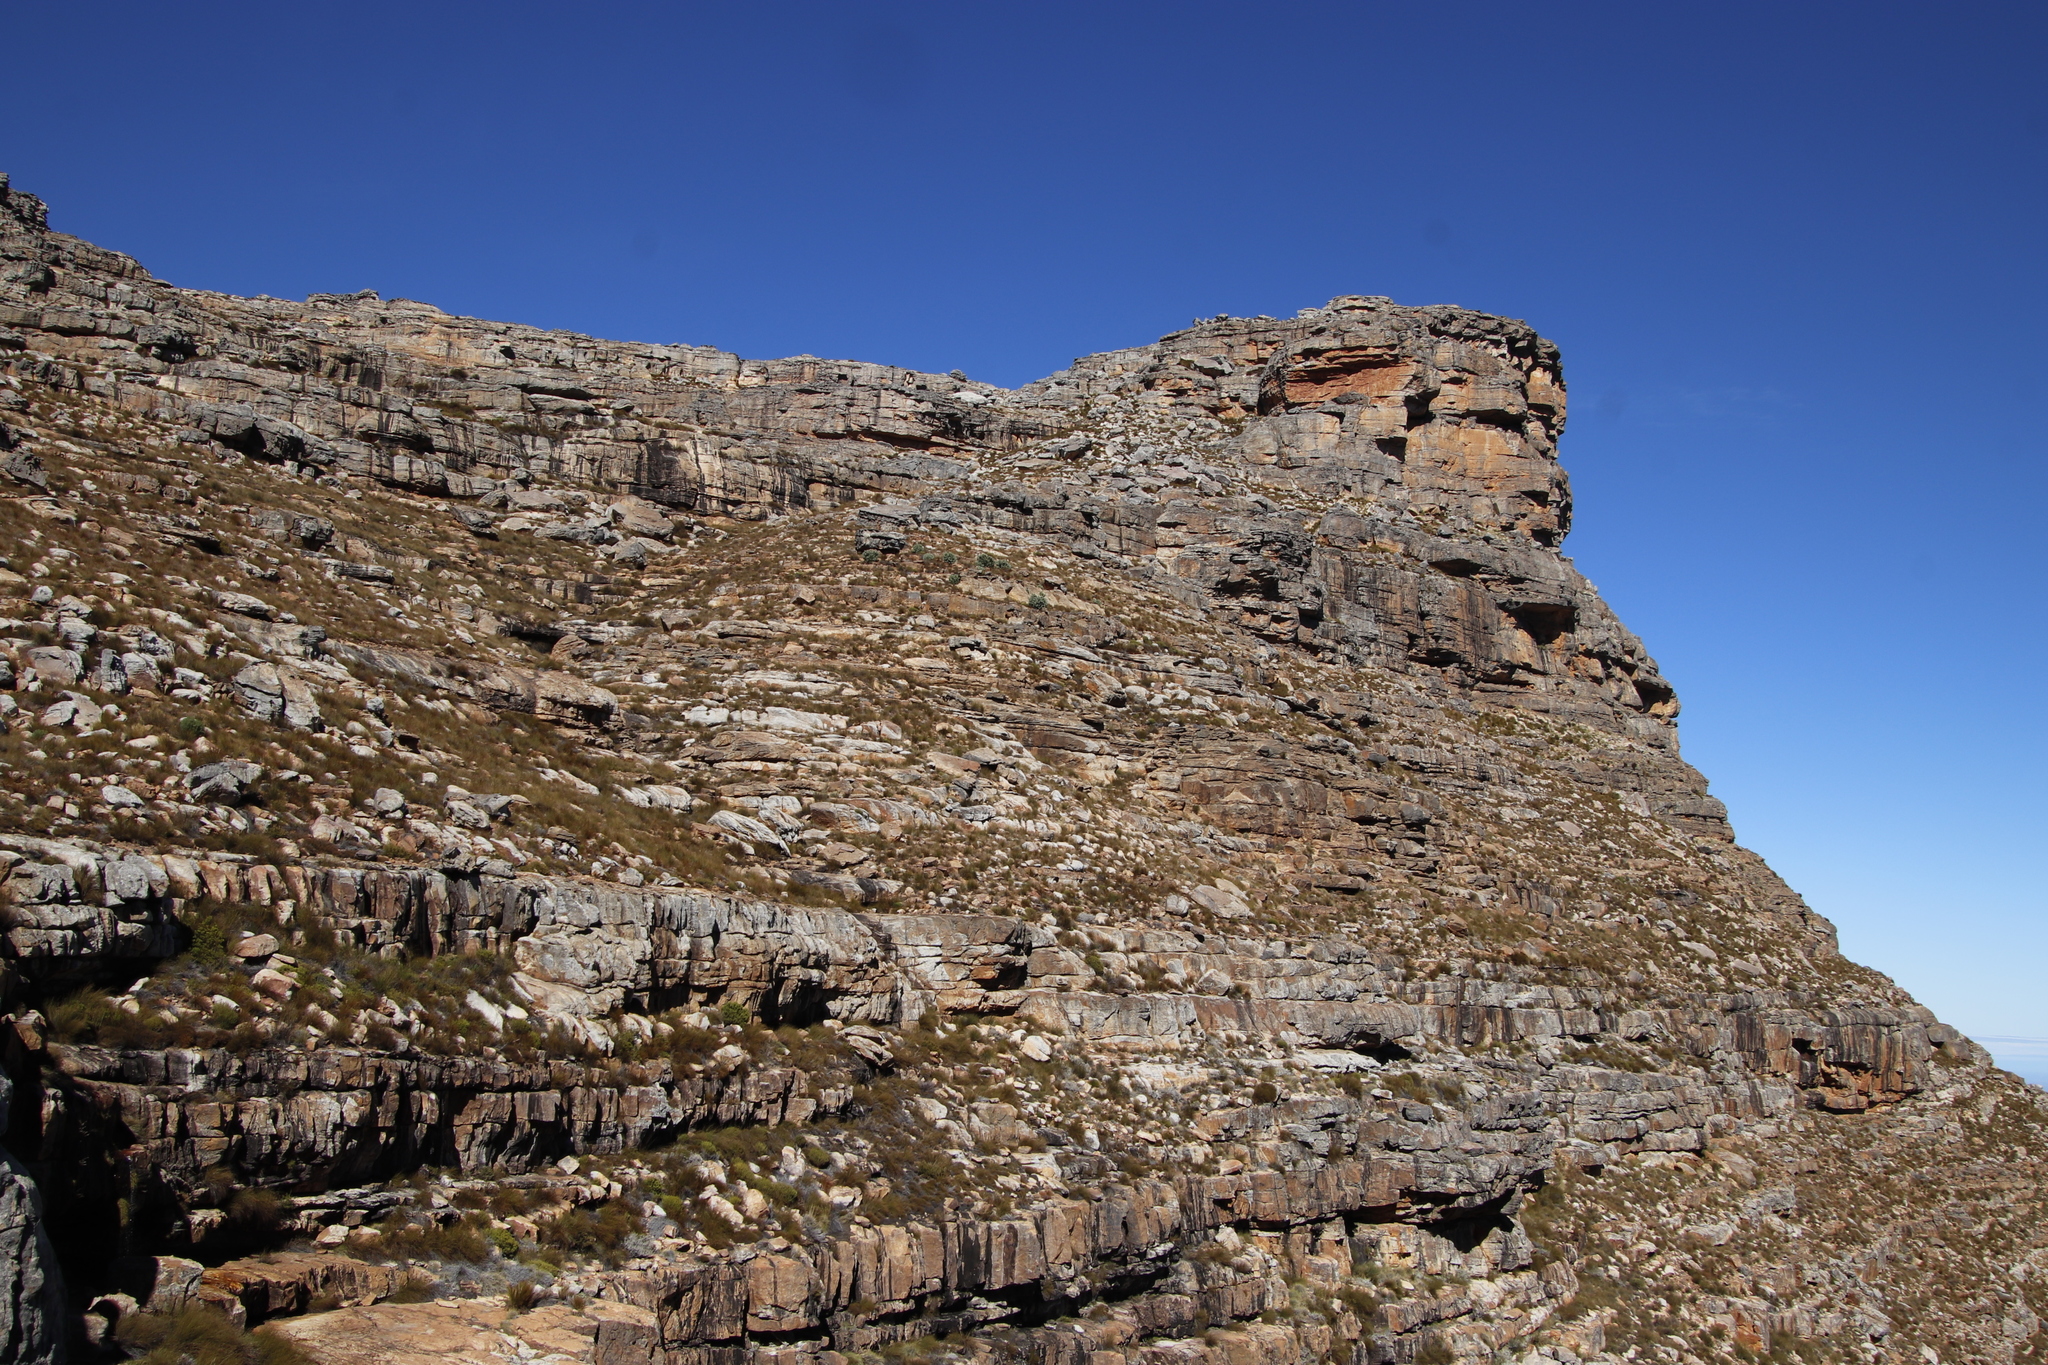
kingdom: Plantae
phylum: Tracheophyta
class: Magnoliopsida
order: Proteales
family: Proteaceae
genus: Protea
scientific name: Protea punctata
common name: Water sugarbush
